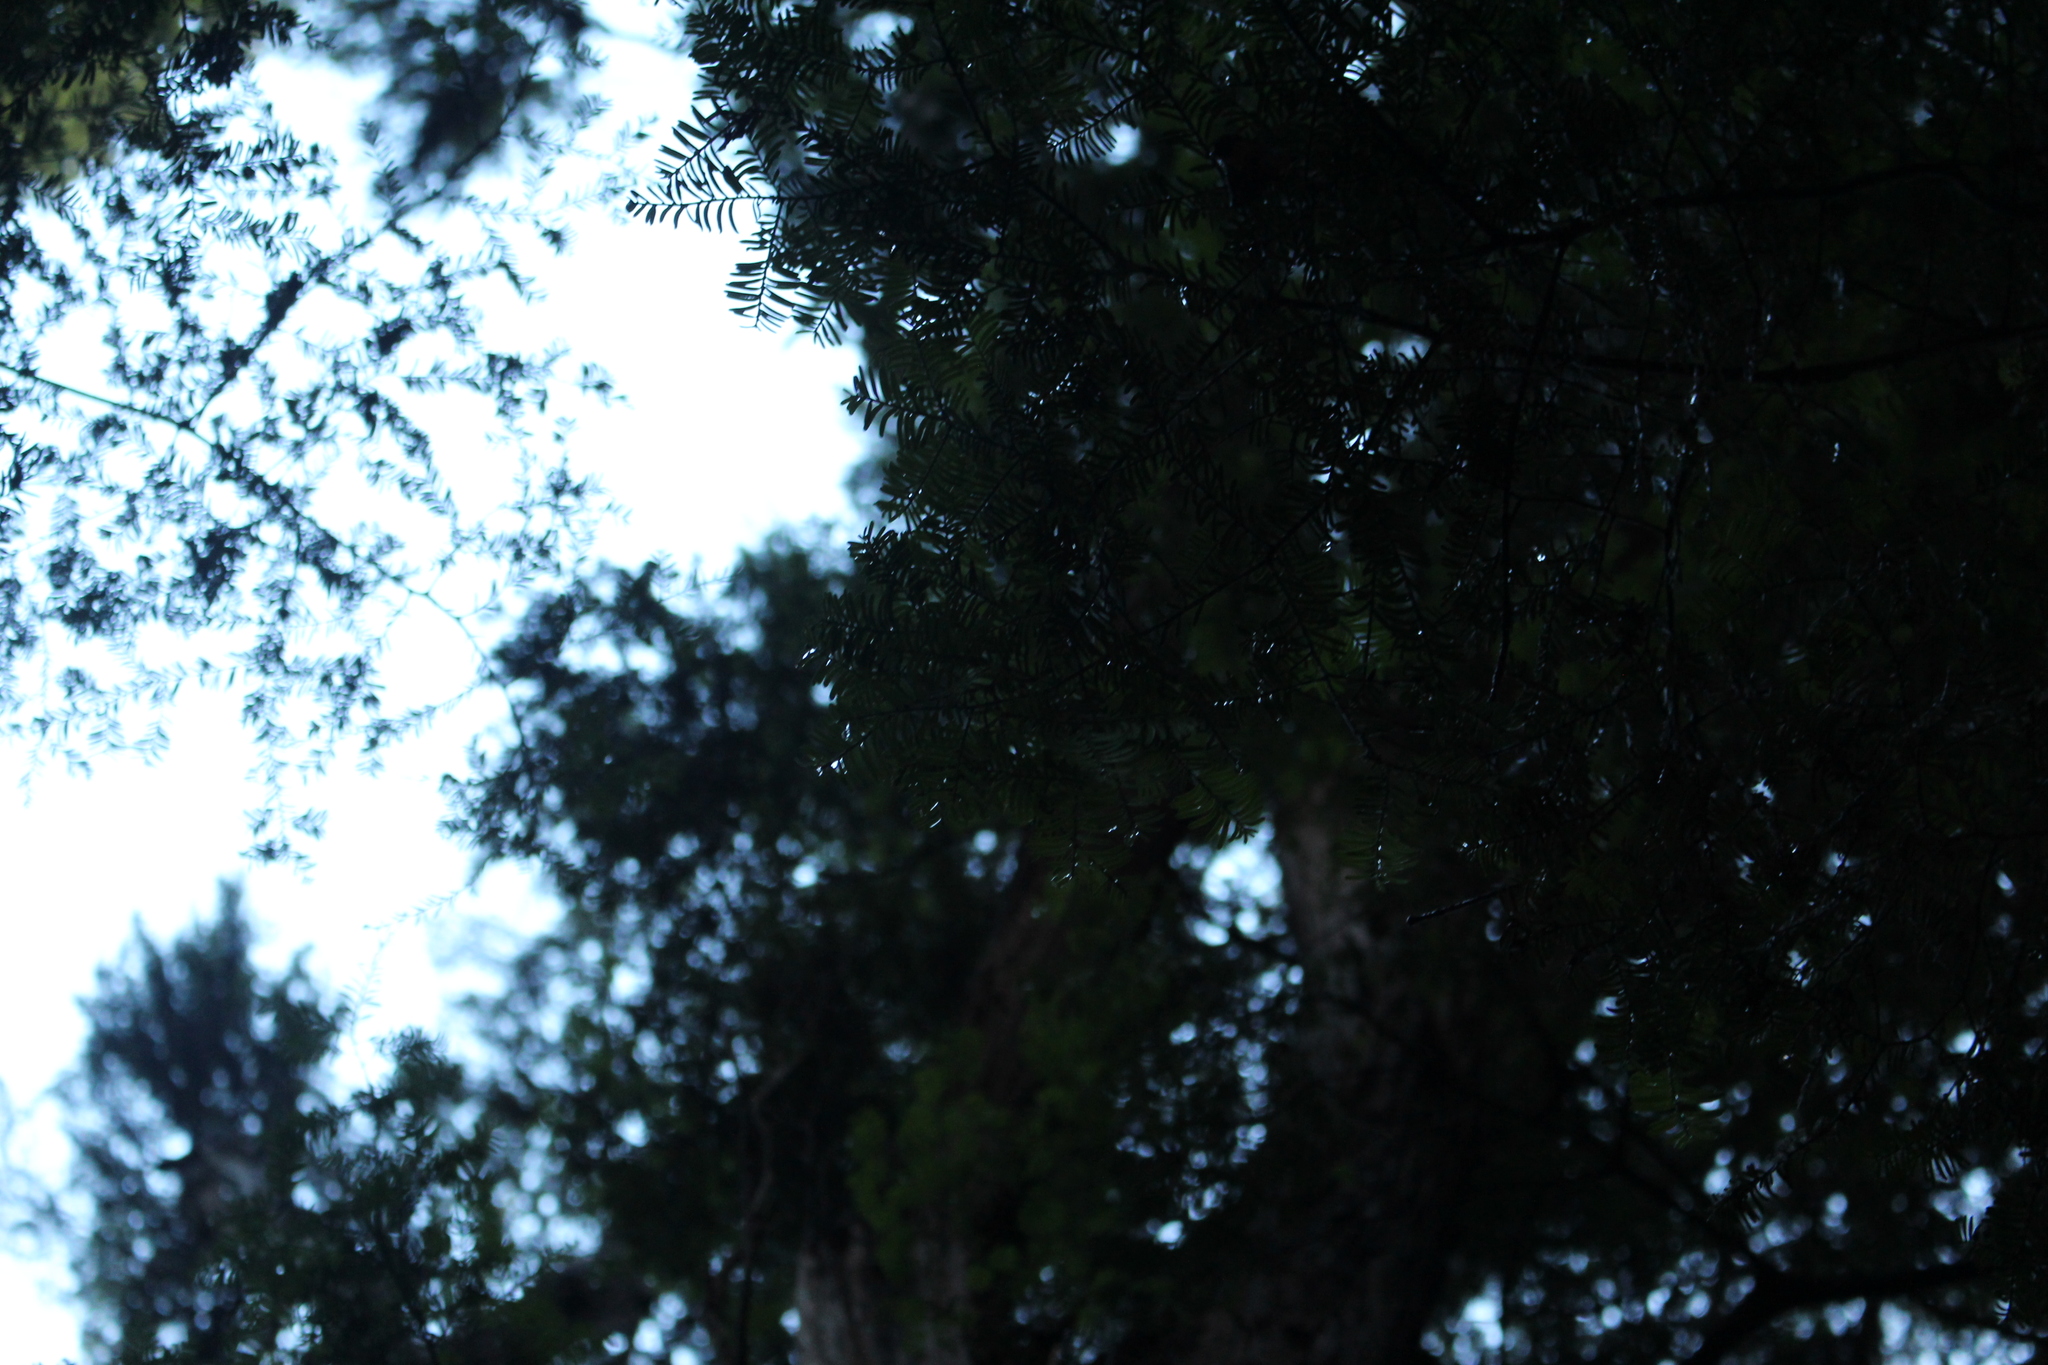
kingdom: Plantae
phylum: Tracheophyta
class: Pinopsida
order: Pinales
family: Podocarpaceae
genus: Prumnopitys
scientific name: Prumnopitys taxifolia
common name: Matai
